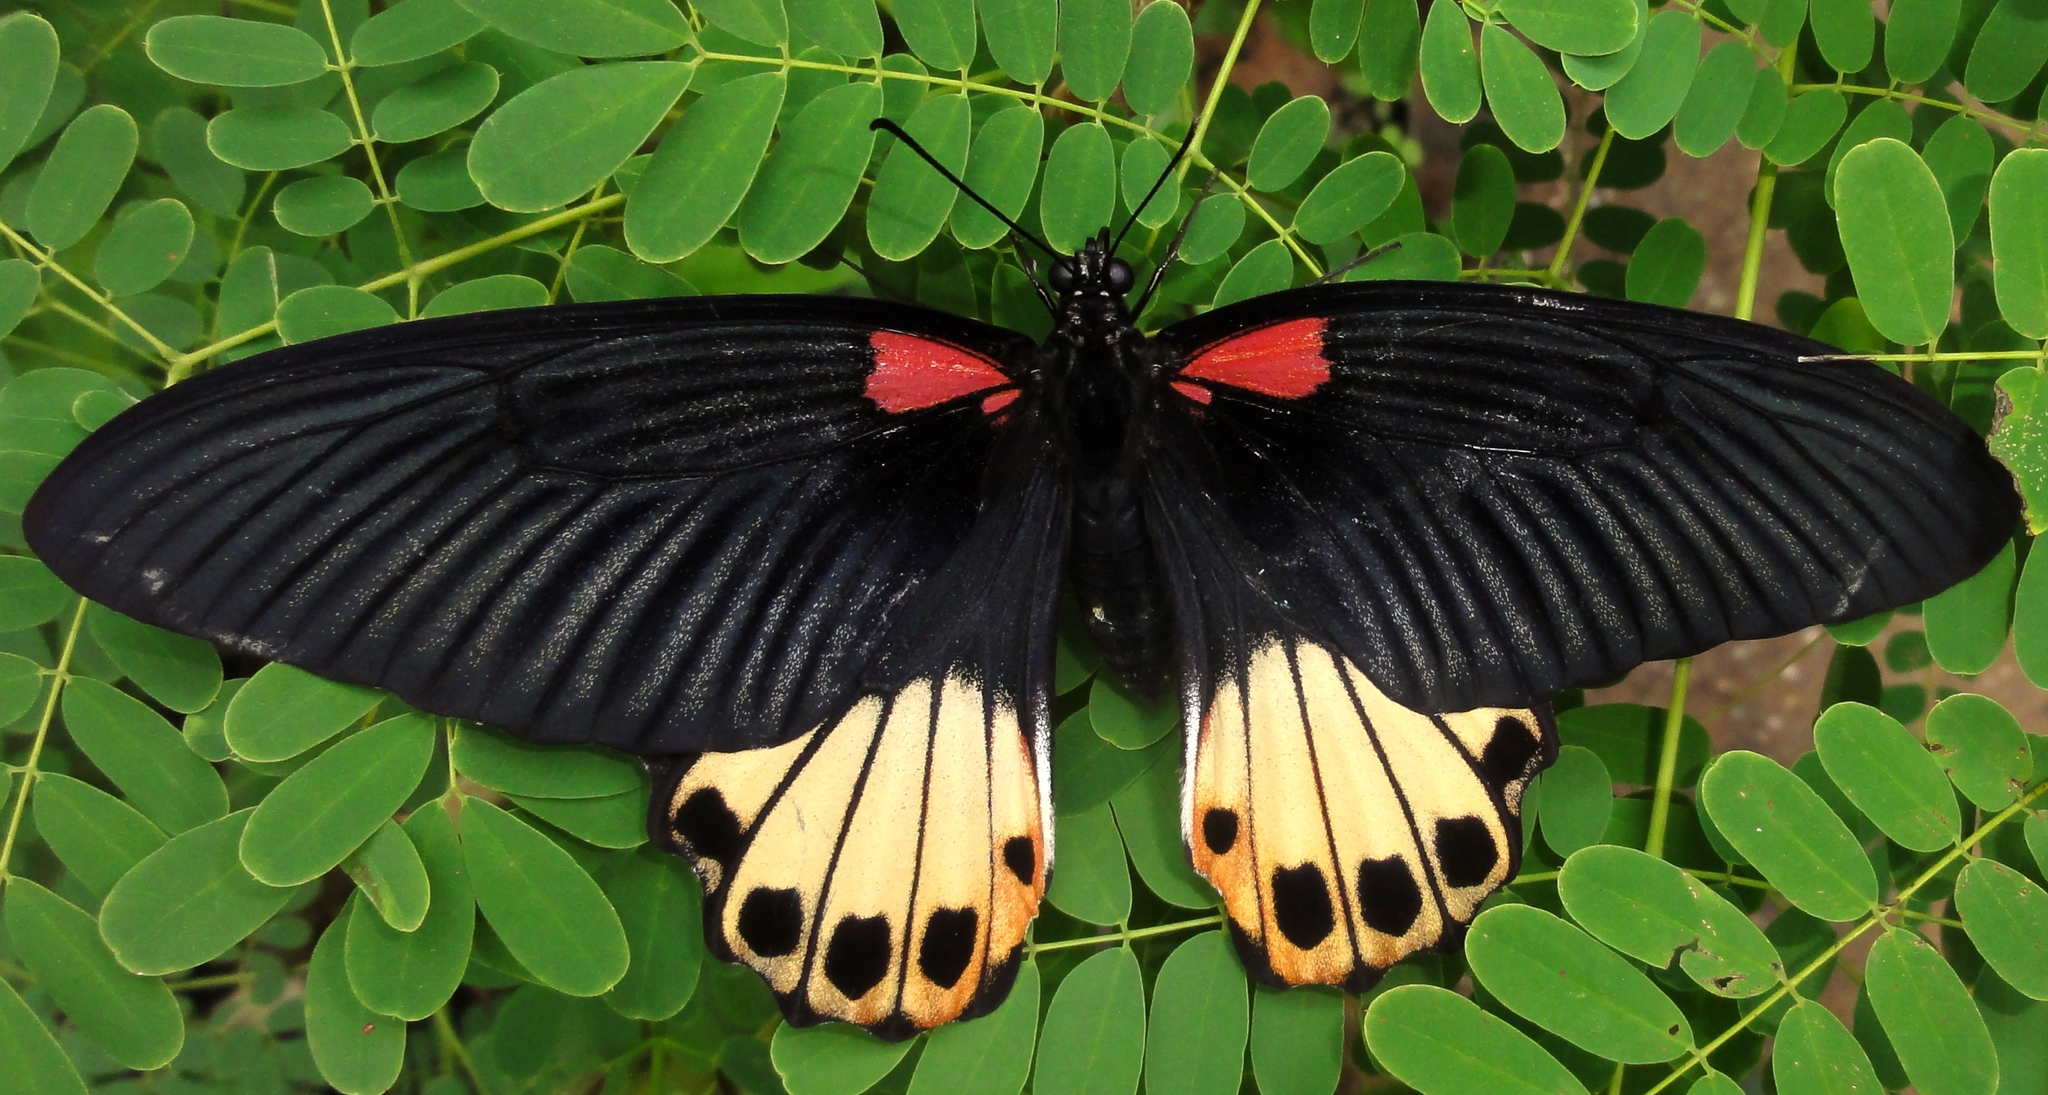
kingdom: Animalia
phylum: Arthropoda
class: Insecta
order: Lepidoptera
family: Papilionidae
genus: Papilio
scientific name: Papilio memnon
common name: Great mormon
